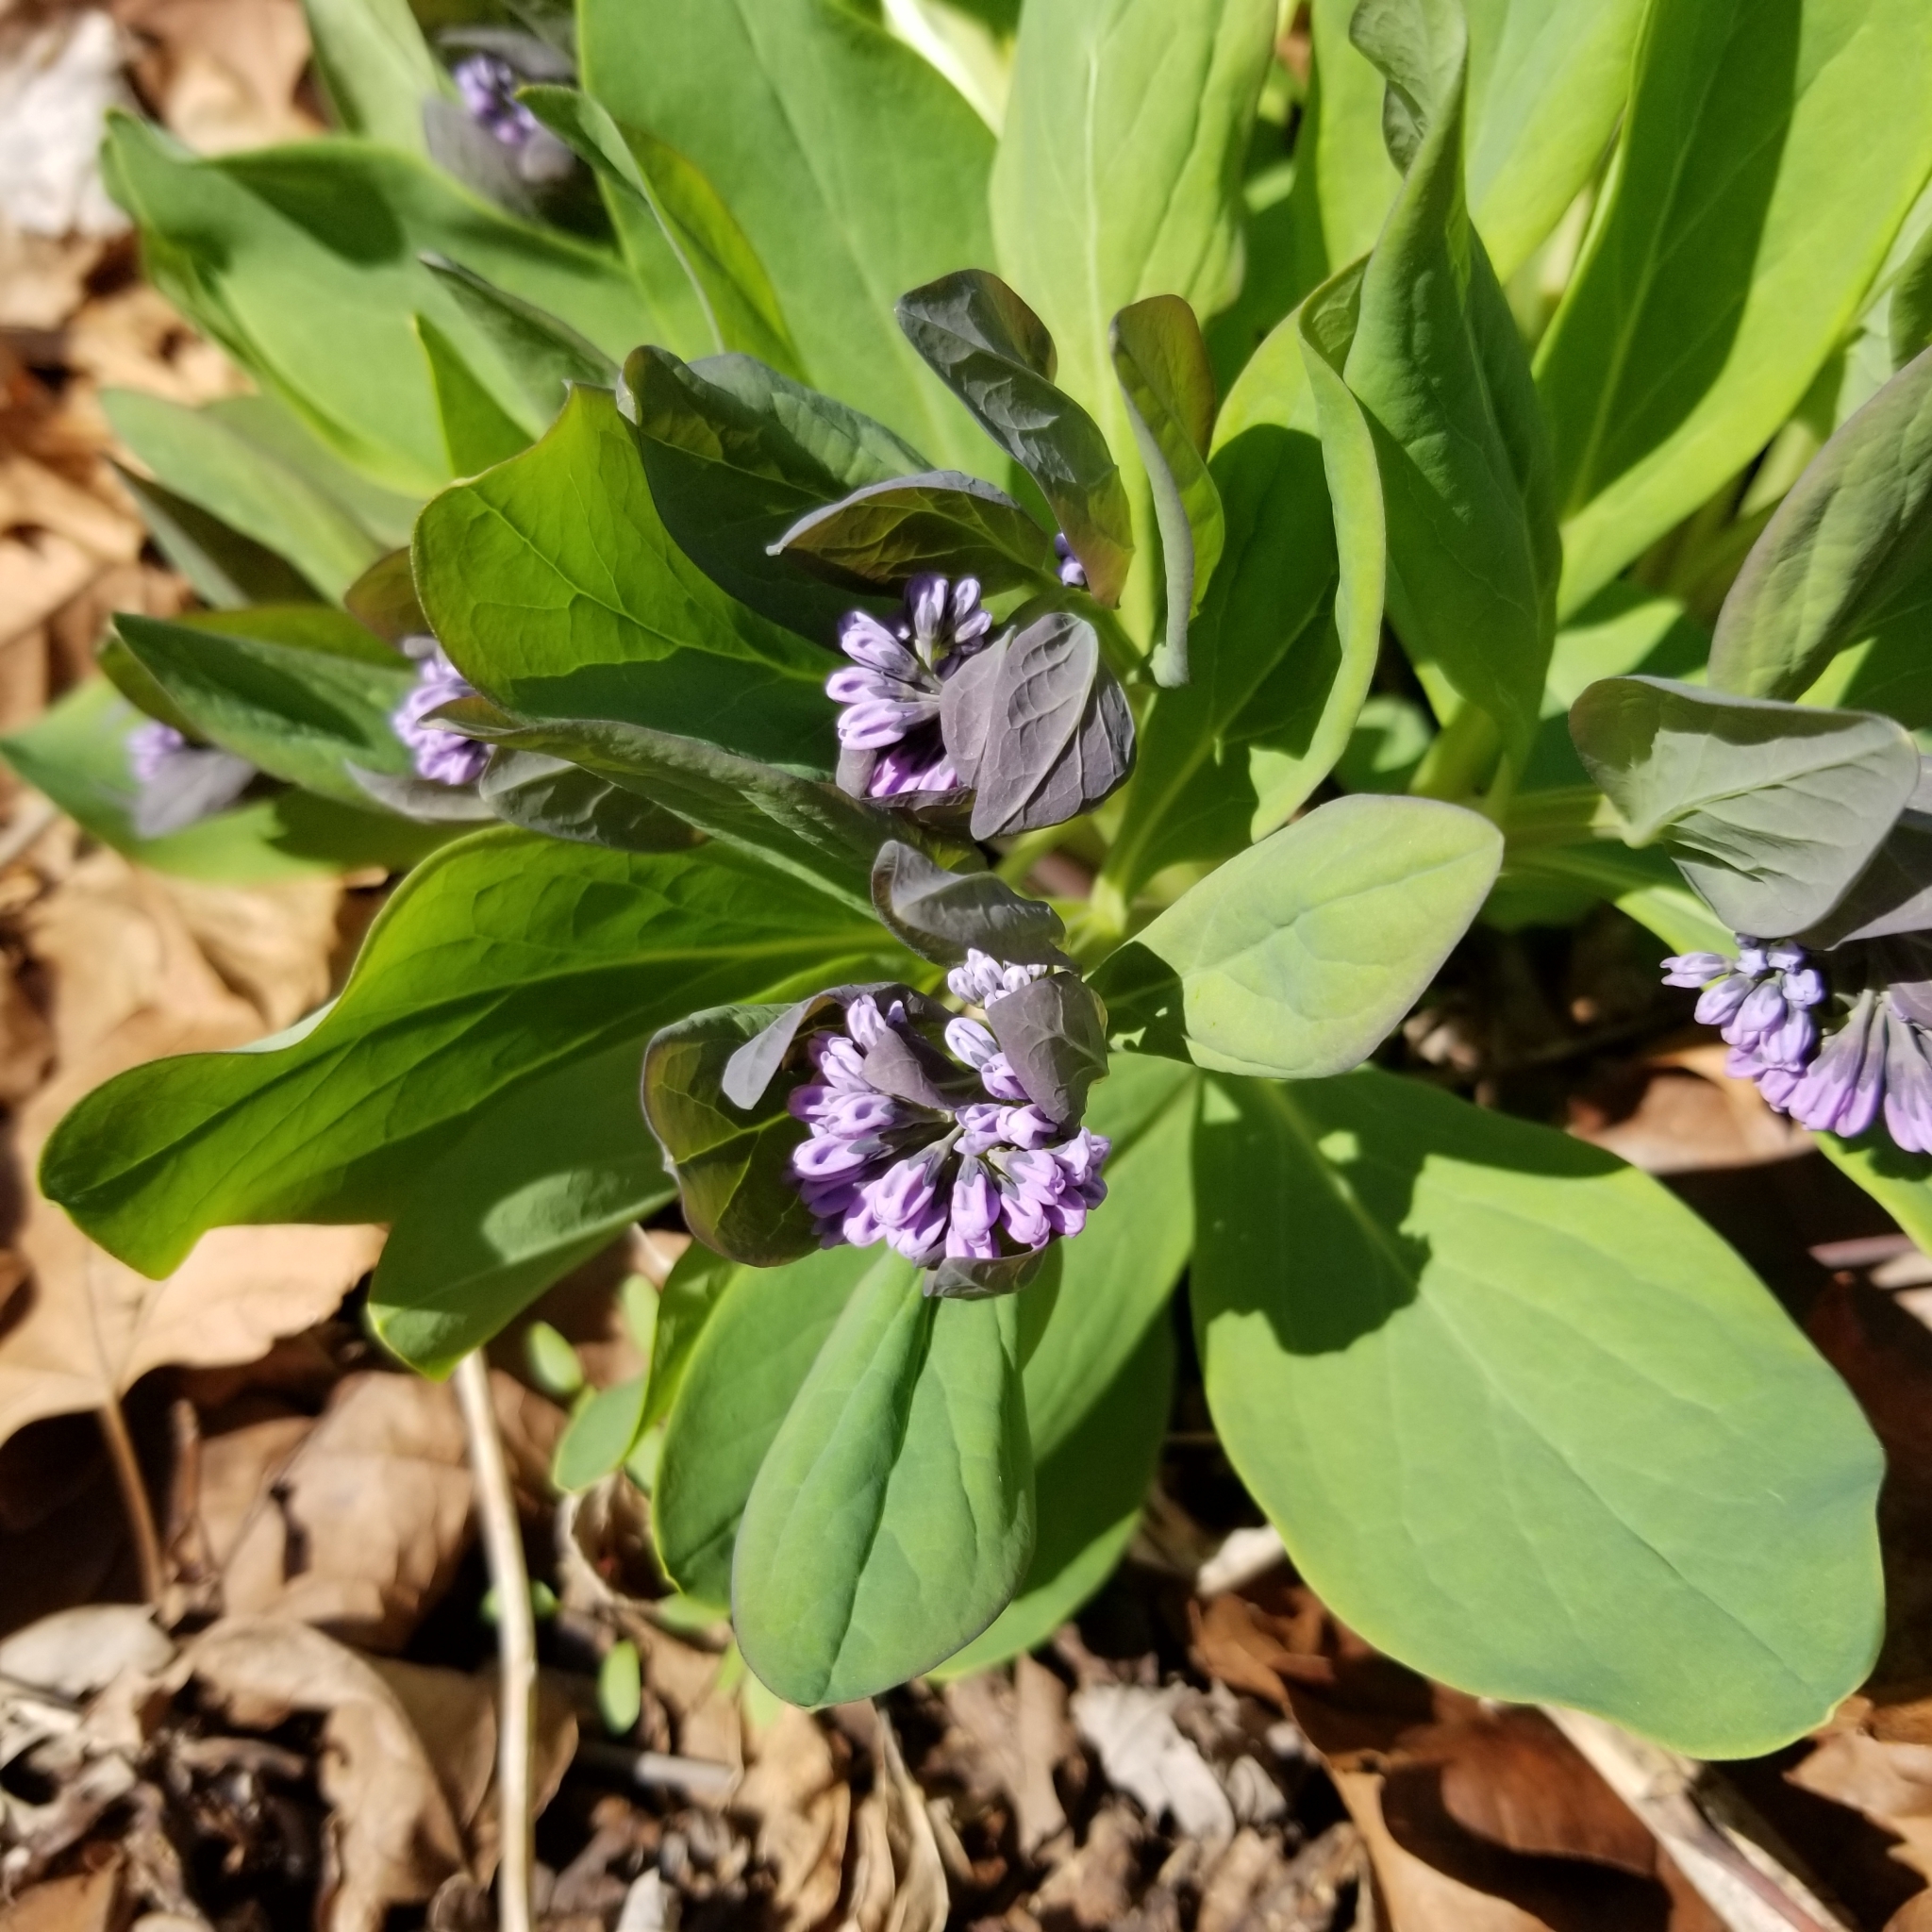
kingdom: Plantae
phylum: Tracheophyta
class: Magnoliopsida
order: Boraginales
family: Boraginaceae
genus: Mertensia
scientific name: Mertensia virginica
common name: Virginia bluebells
